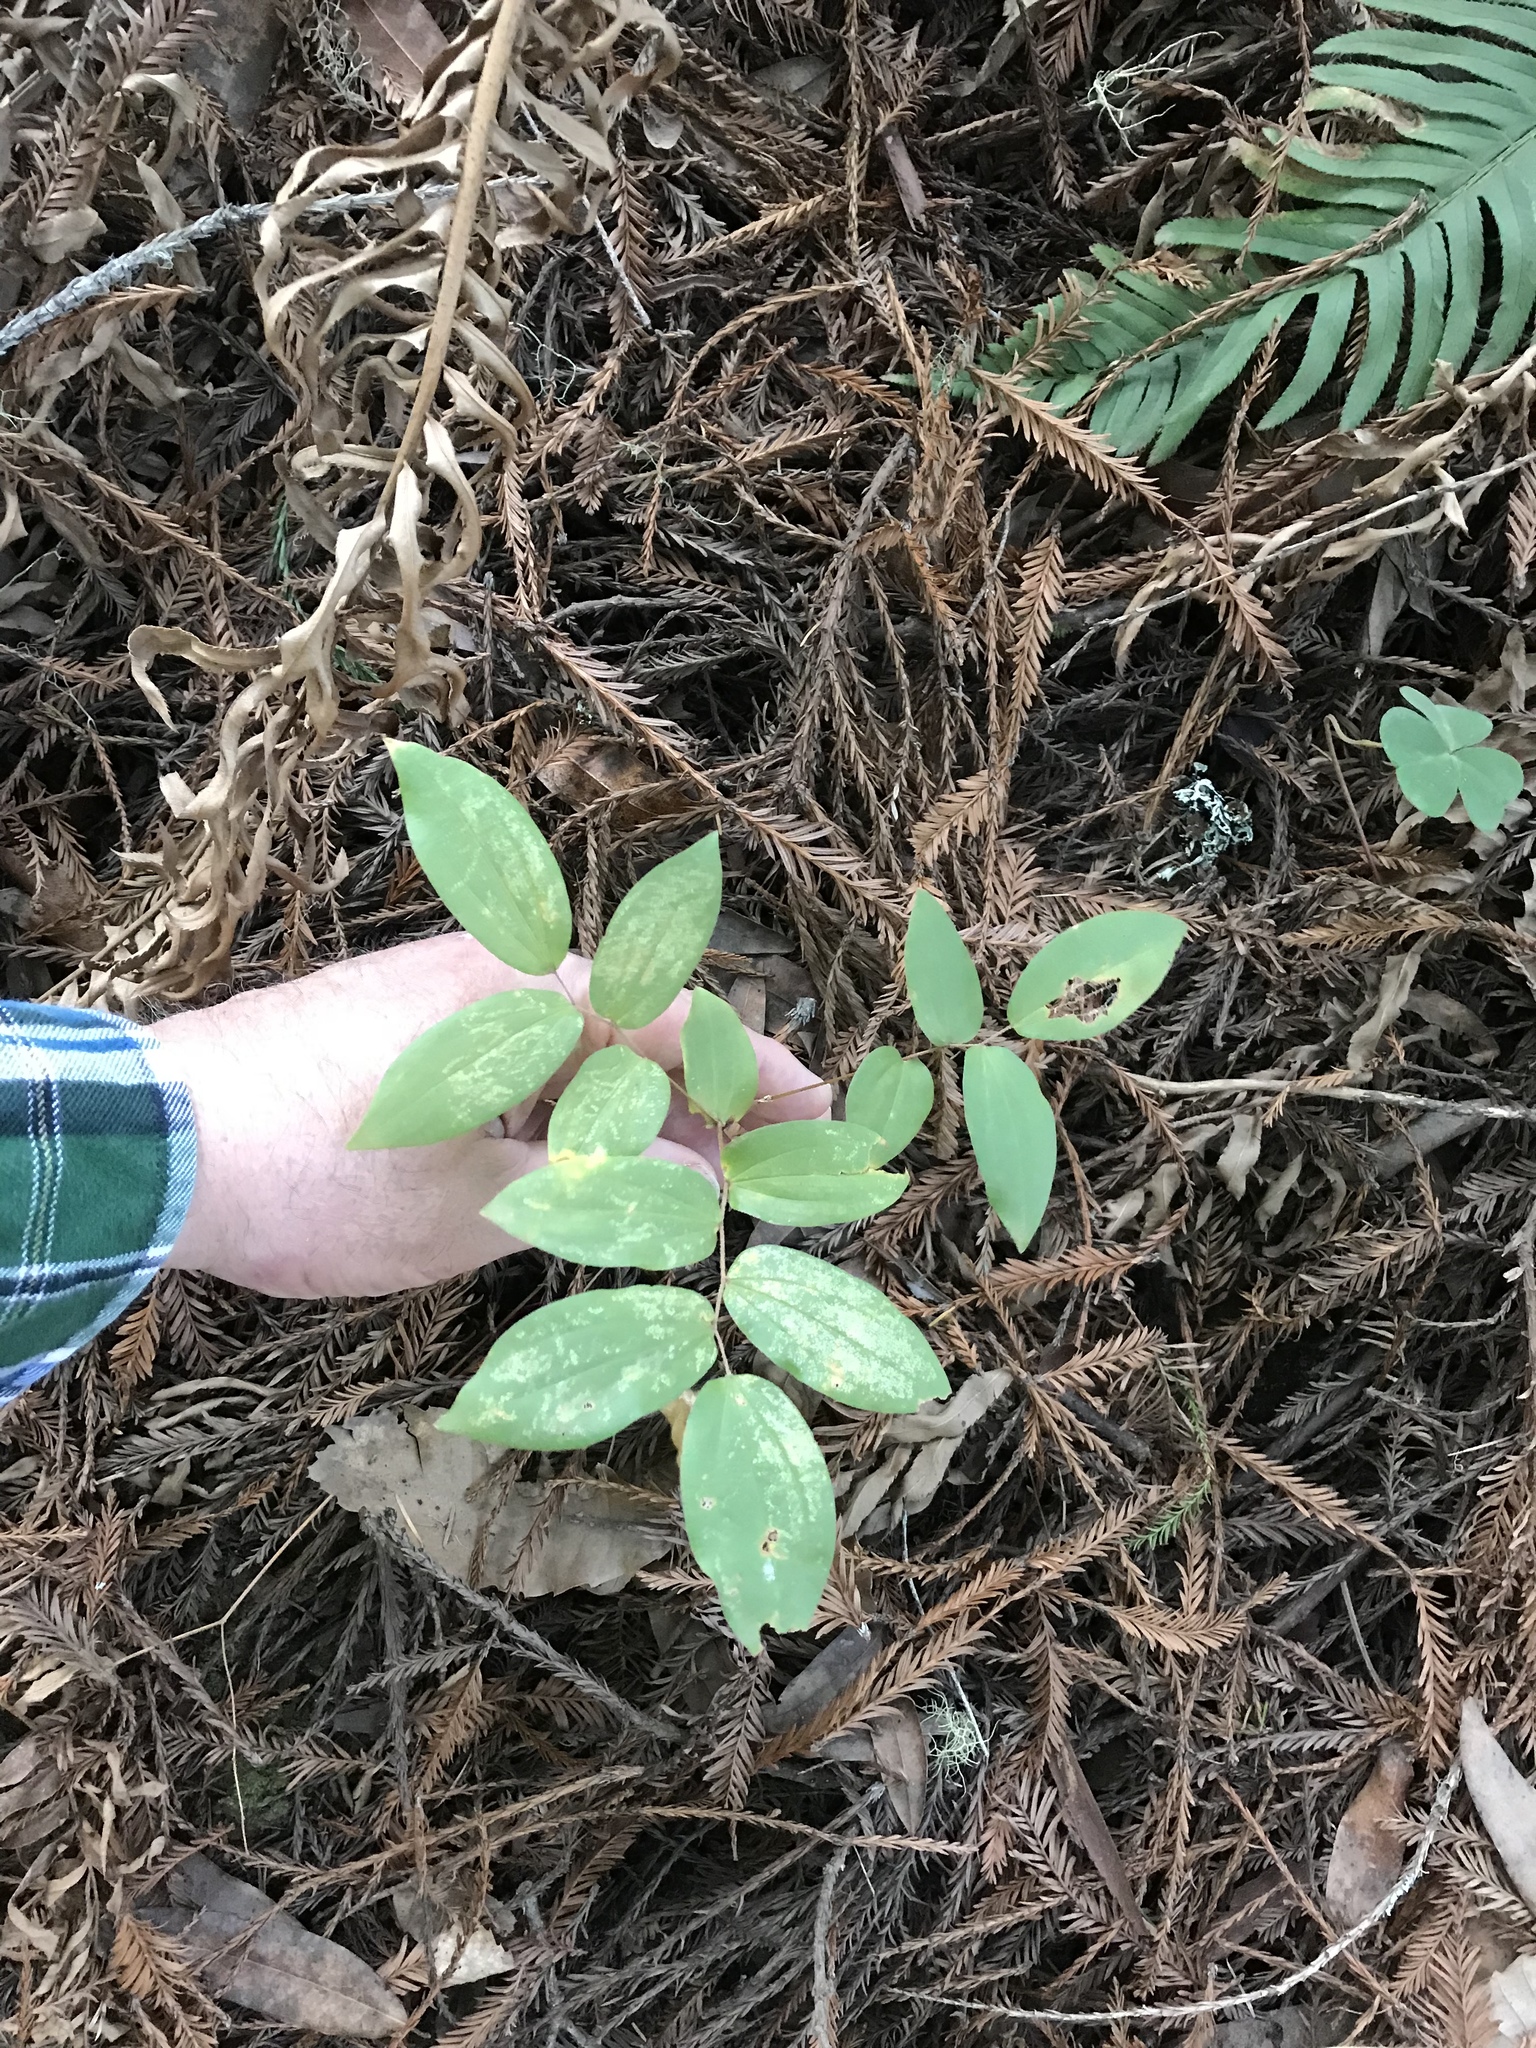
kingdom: Plantae
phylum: Tracheophyta
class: Liliopsida
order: Liliales
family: Liliaceae
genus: Prosartes
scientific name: Prosartes hookeri
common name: Fairy-bells
